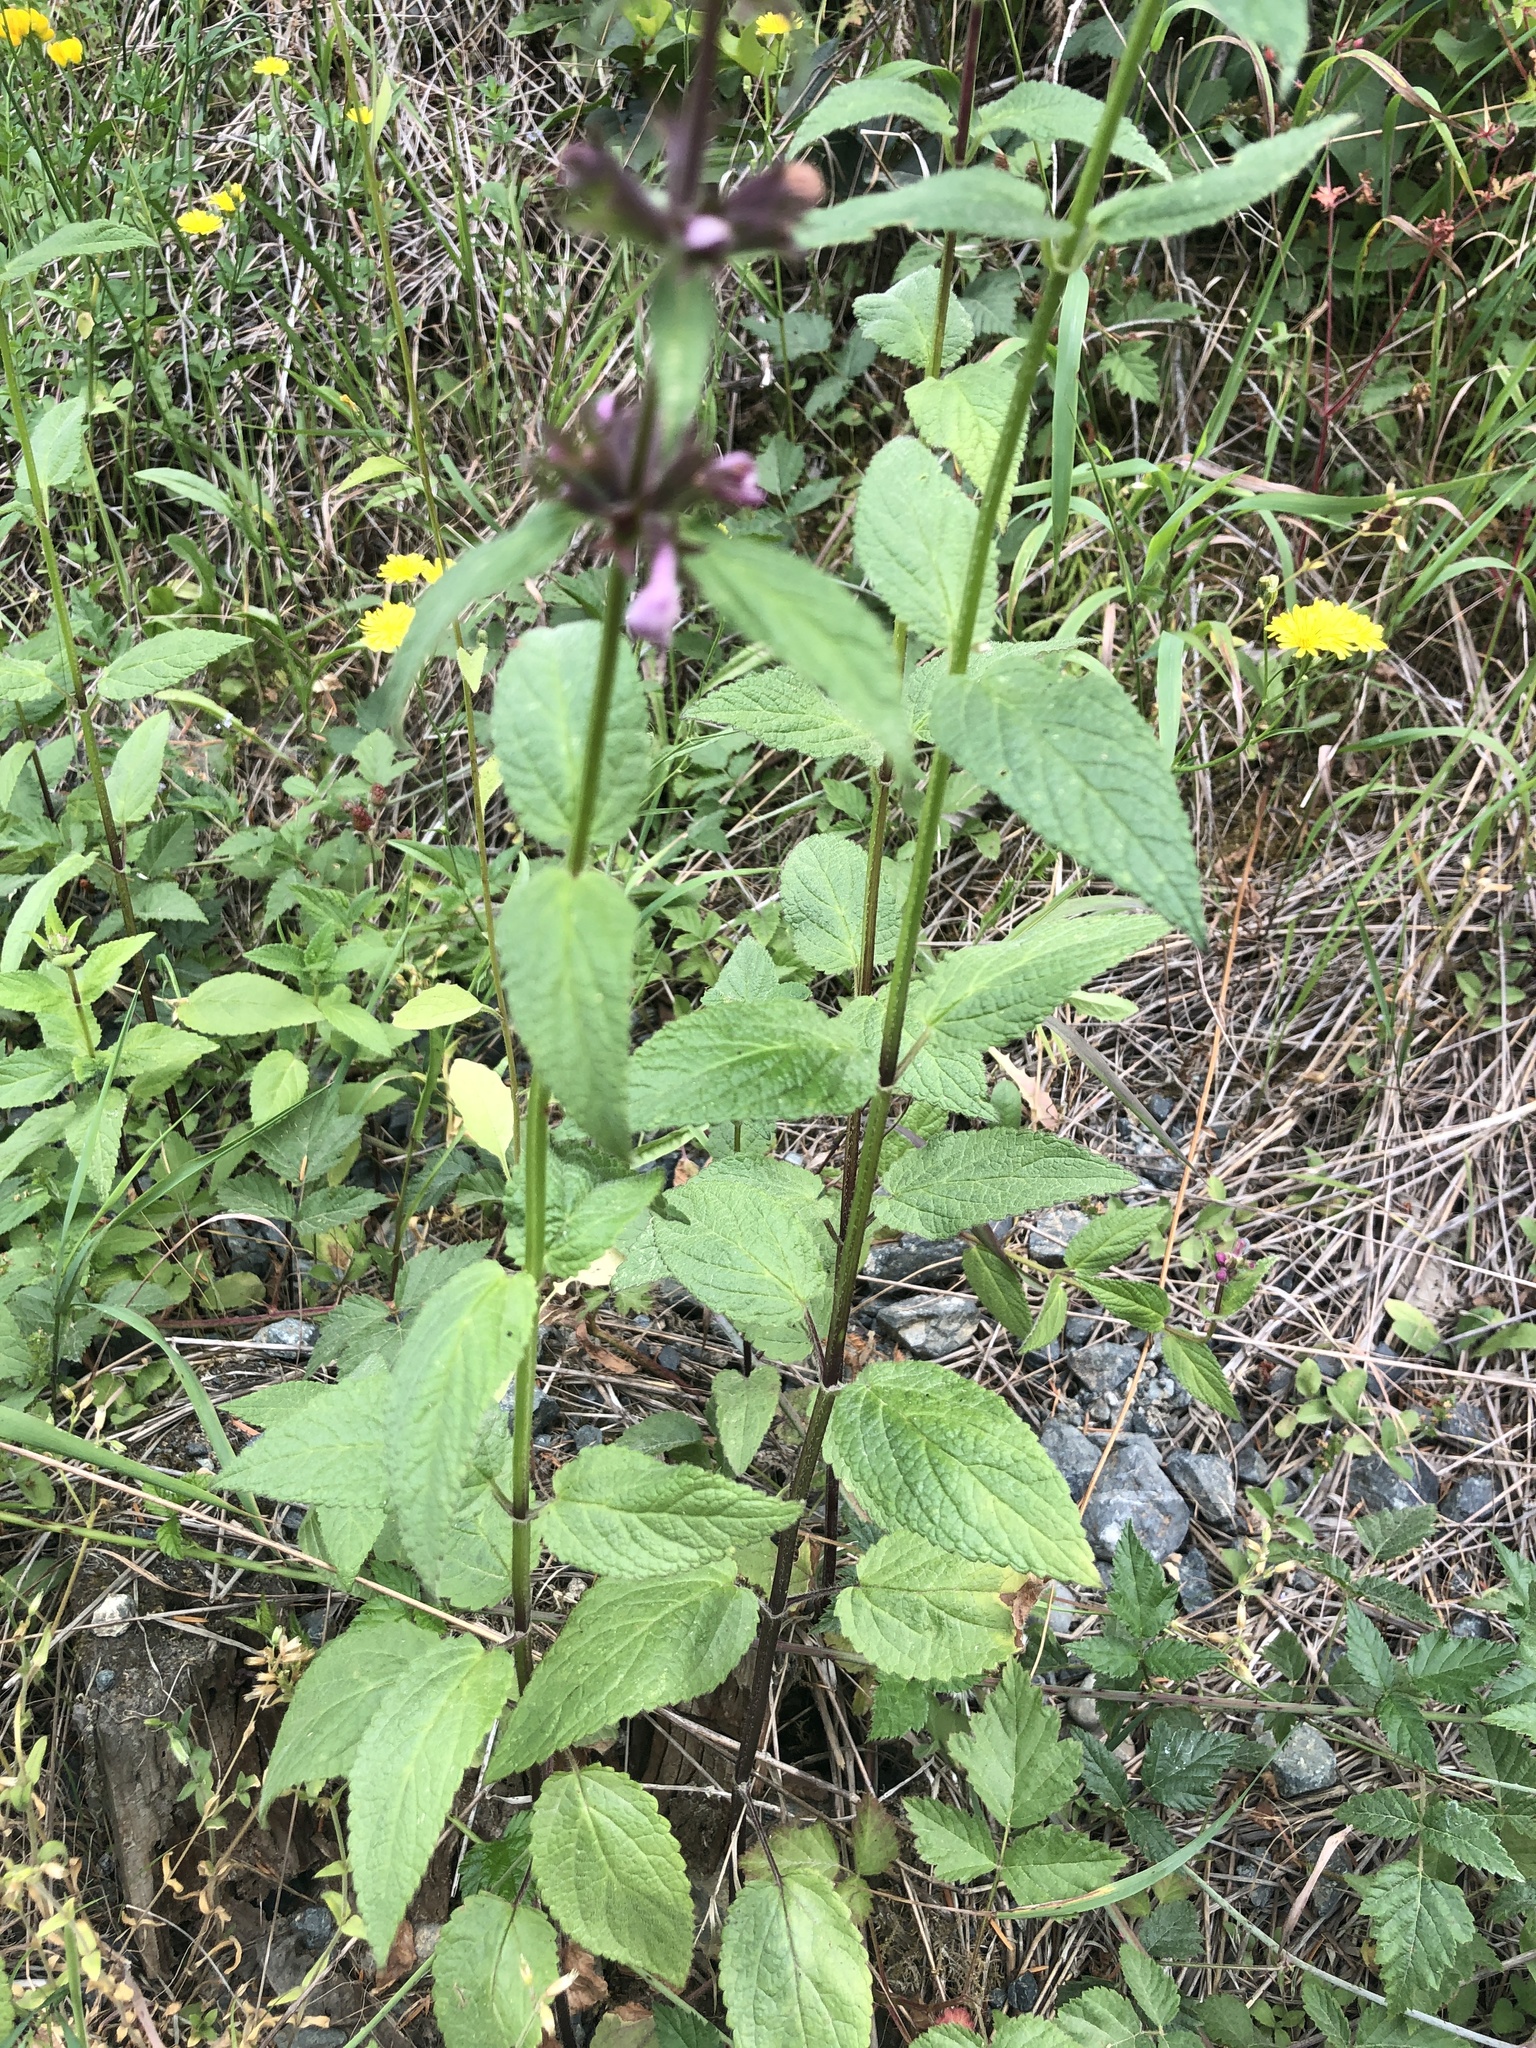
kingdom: Plantae
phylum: Tracheophyta
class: Magnoliopsida
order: Lamiales
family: Lamiaceae
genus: Stachys
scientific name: Stachys chamissonis
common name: Coastal hedge-nettle
